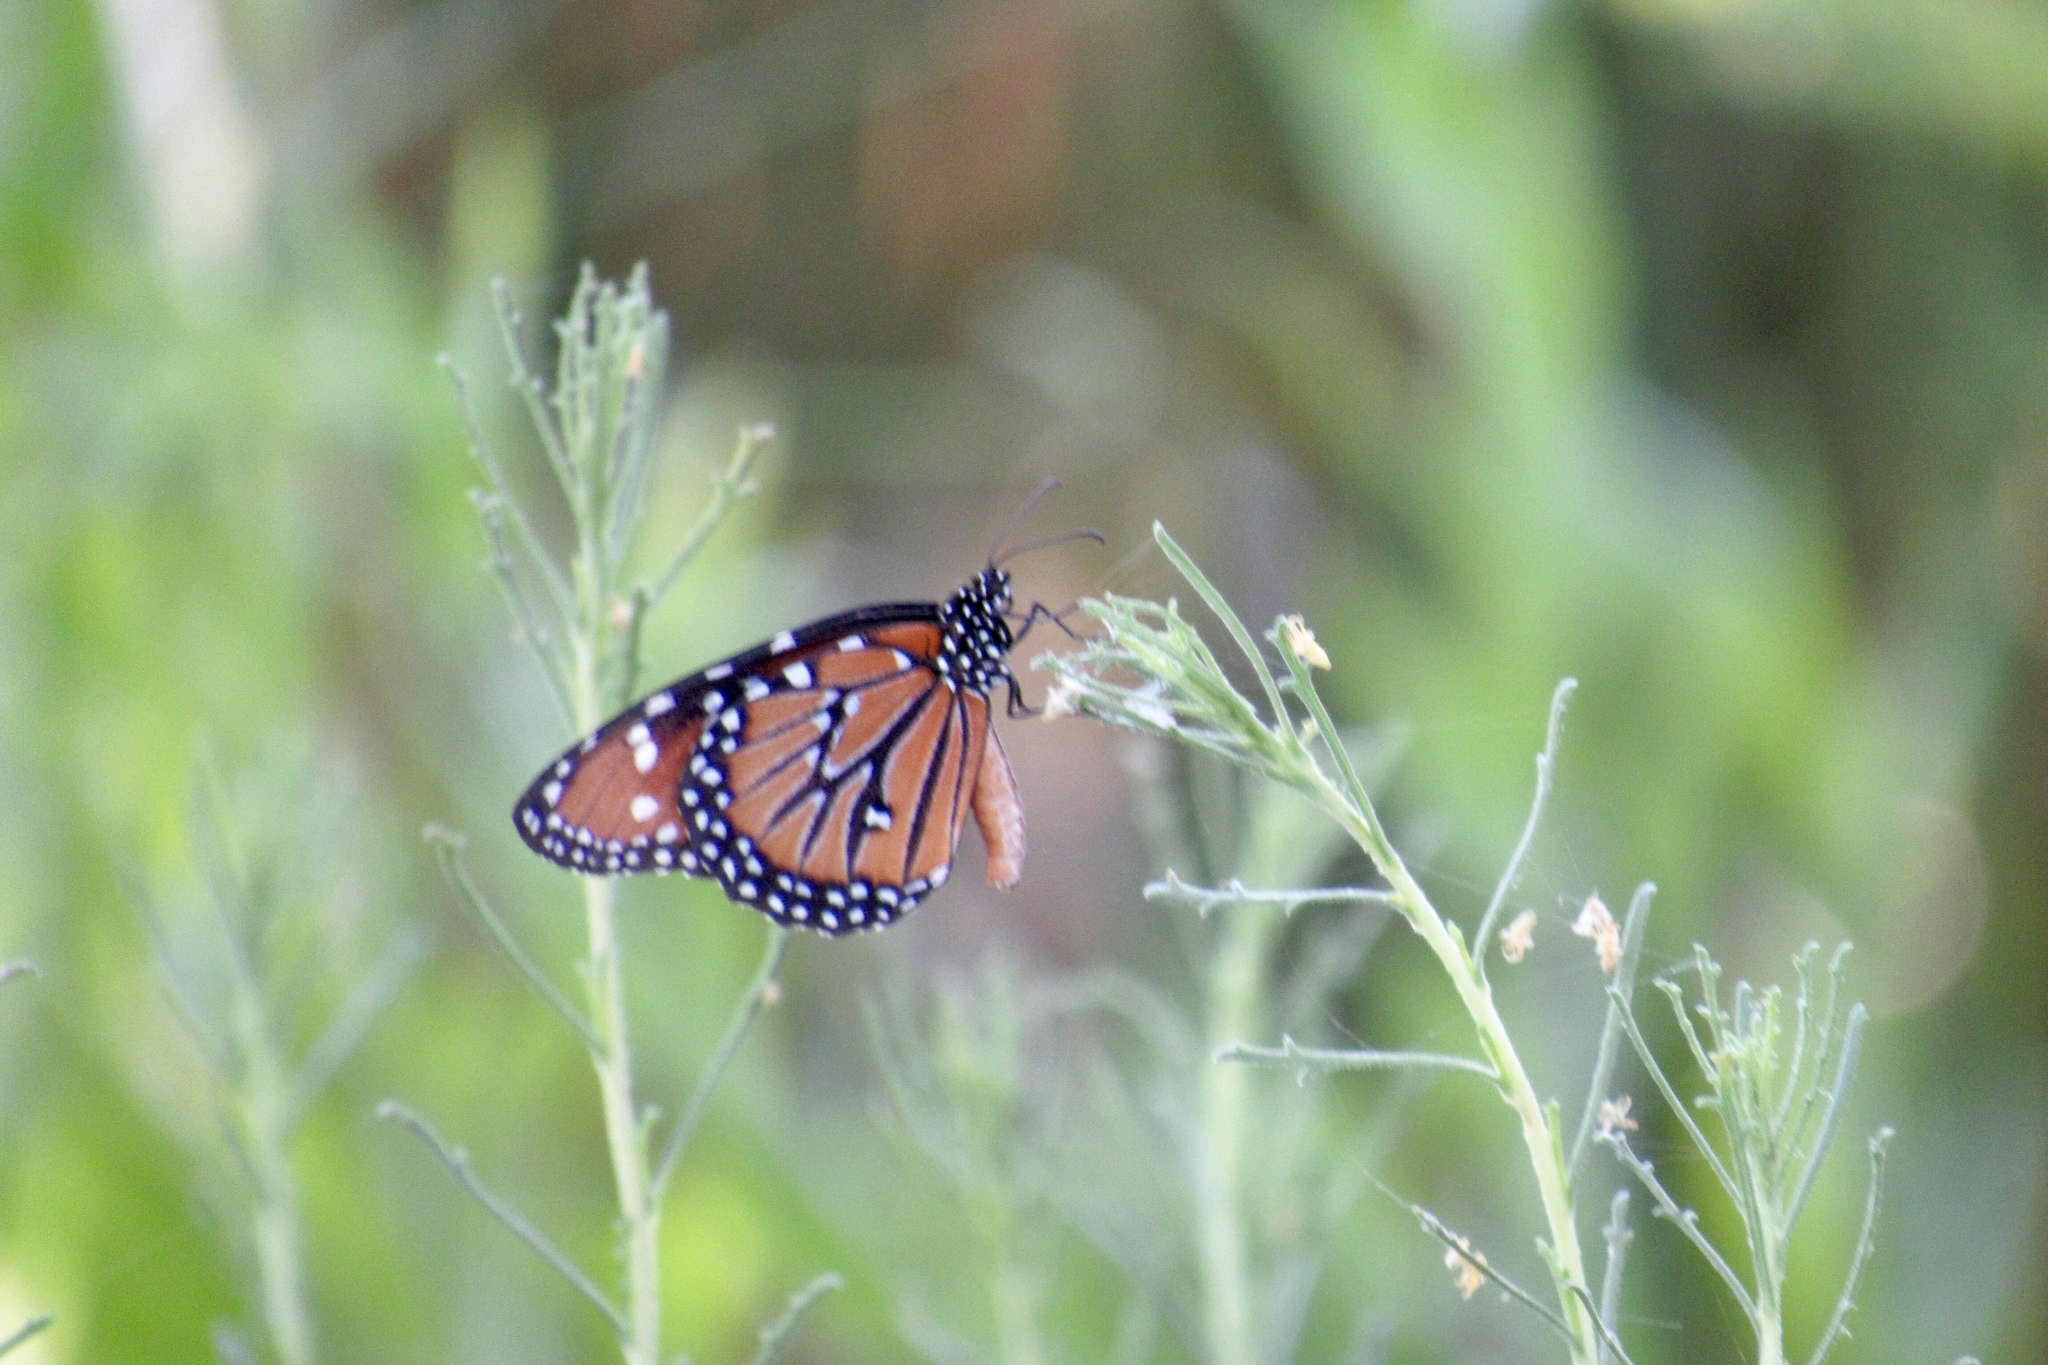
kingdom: Animalia
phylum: Arthropoda
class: Insecta
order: Lepidoptera
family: Nymphalidae
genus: Danaus
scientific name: Danaus gilippus
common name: Queen
